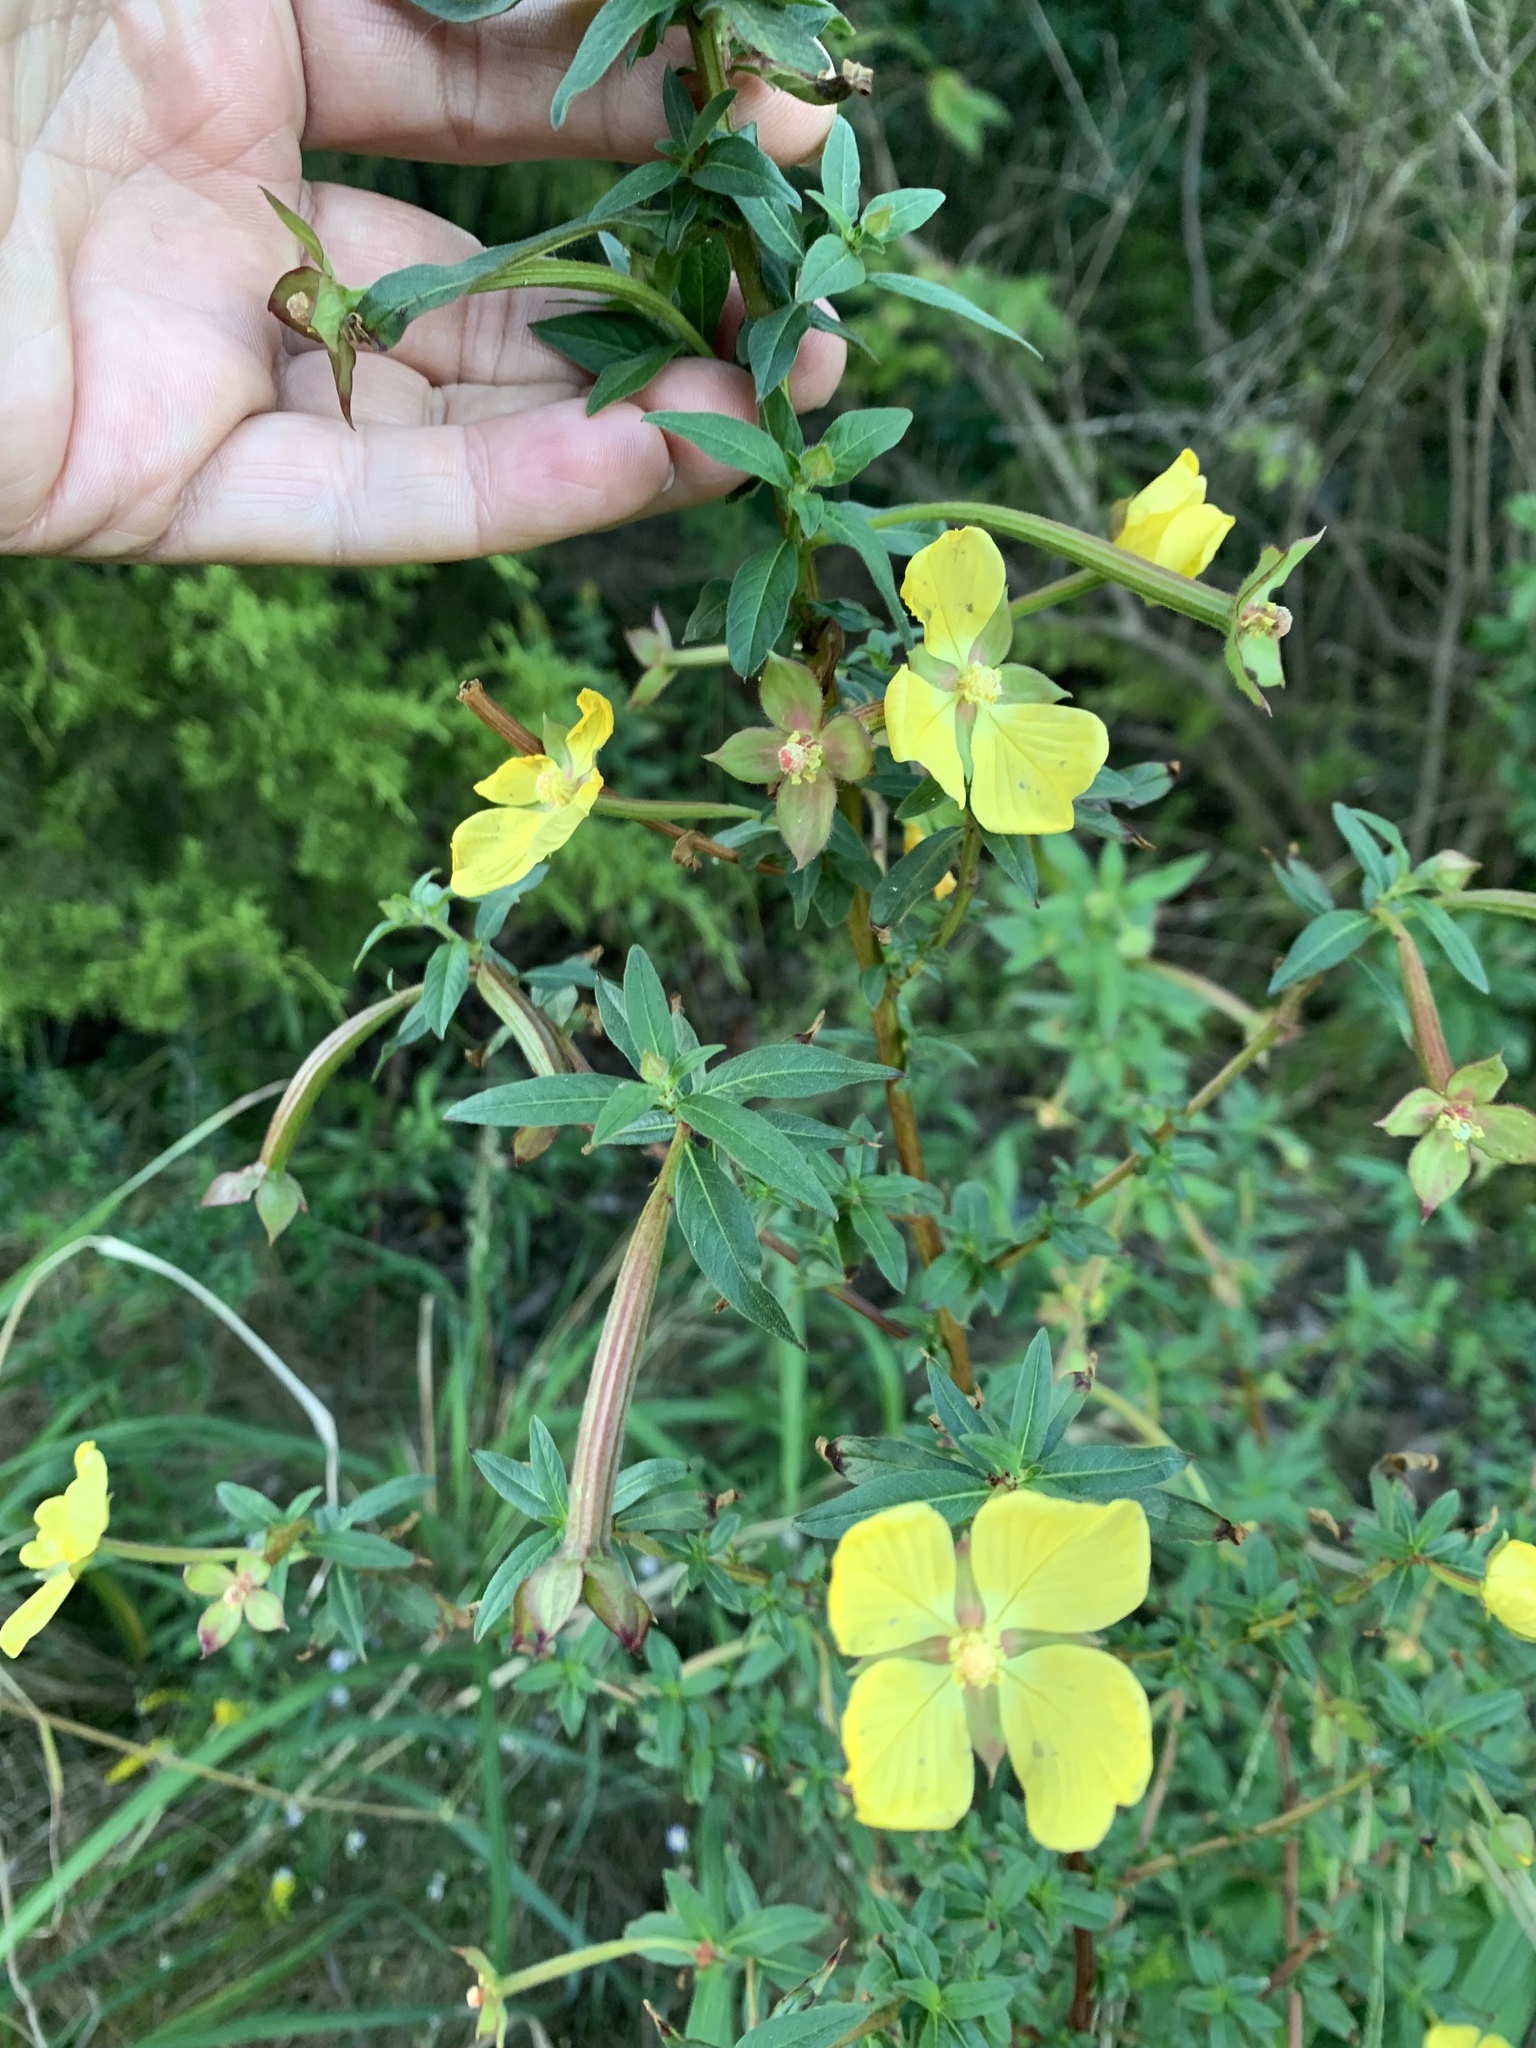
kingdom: Plantae
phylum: Tracheophyta
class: Magnoliopsida
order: Myrtales
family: Onagraceae
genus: Ludwigia
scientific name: Ludwigia octovalvis
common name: Water-primrose
